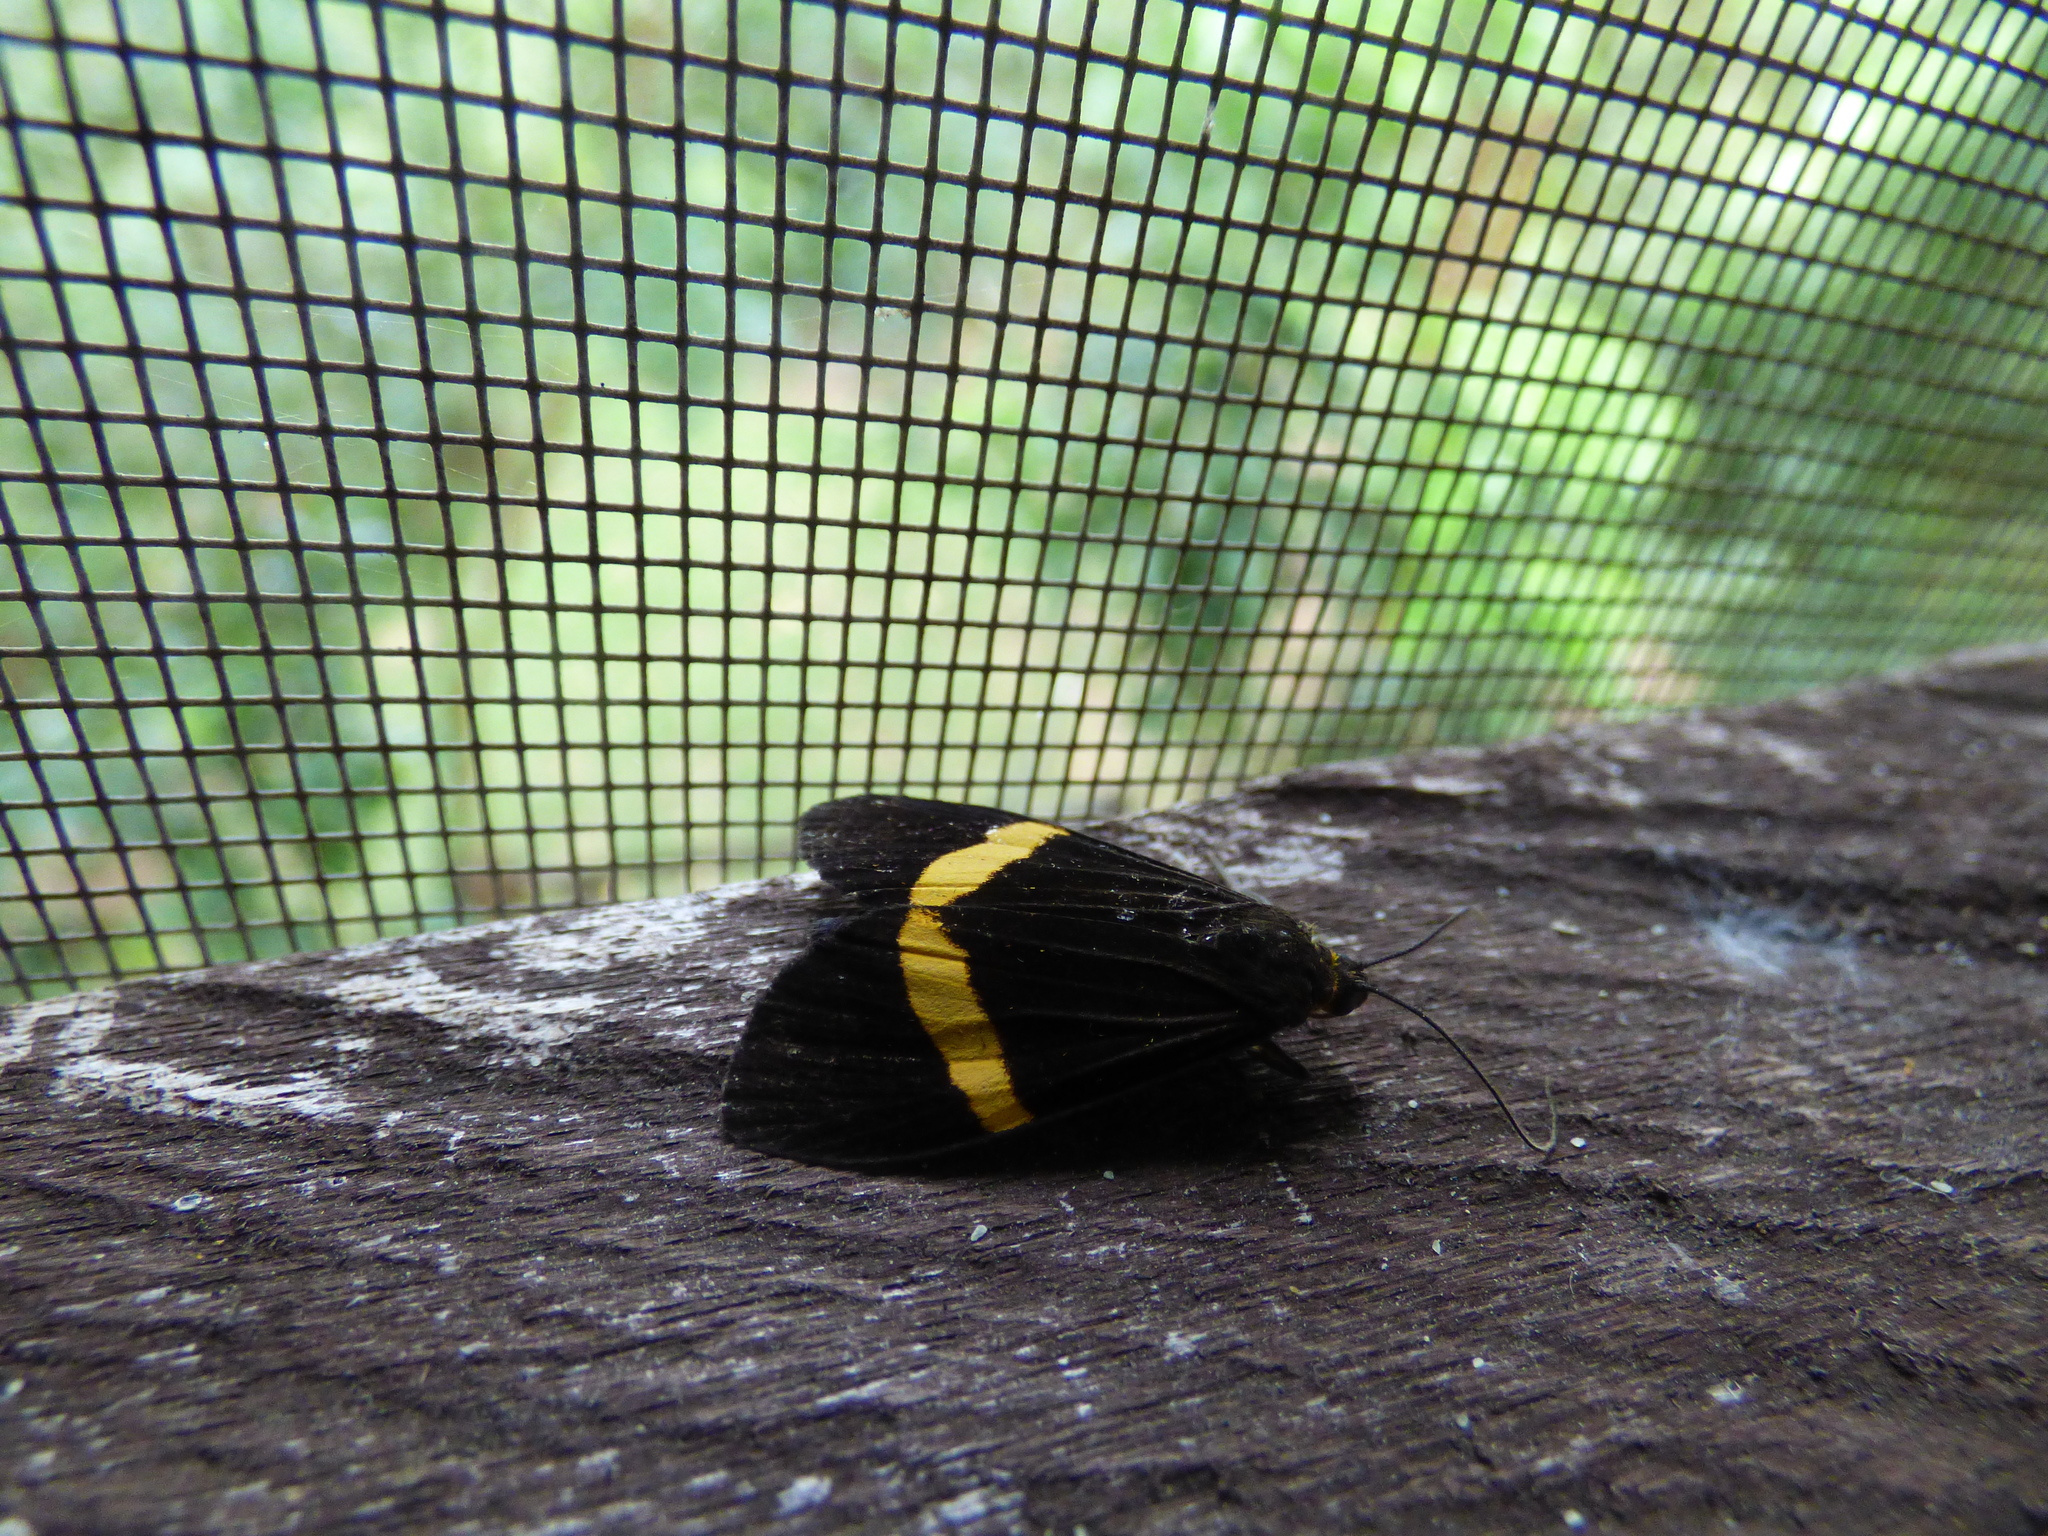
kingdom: Animalia
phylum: Arthropoda
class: Insecta
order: Lepidoptera
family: Erebidae
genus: Aclytia
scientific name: Aclytia heber
